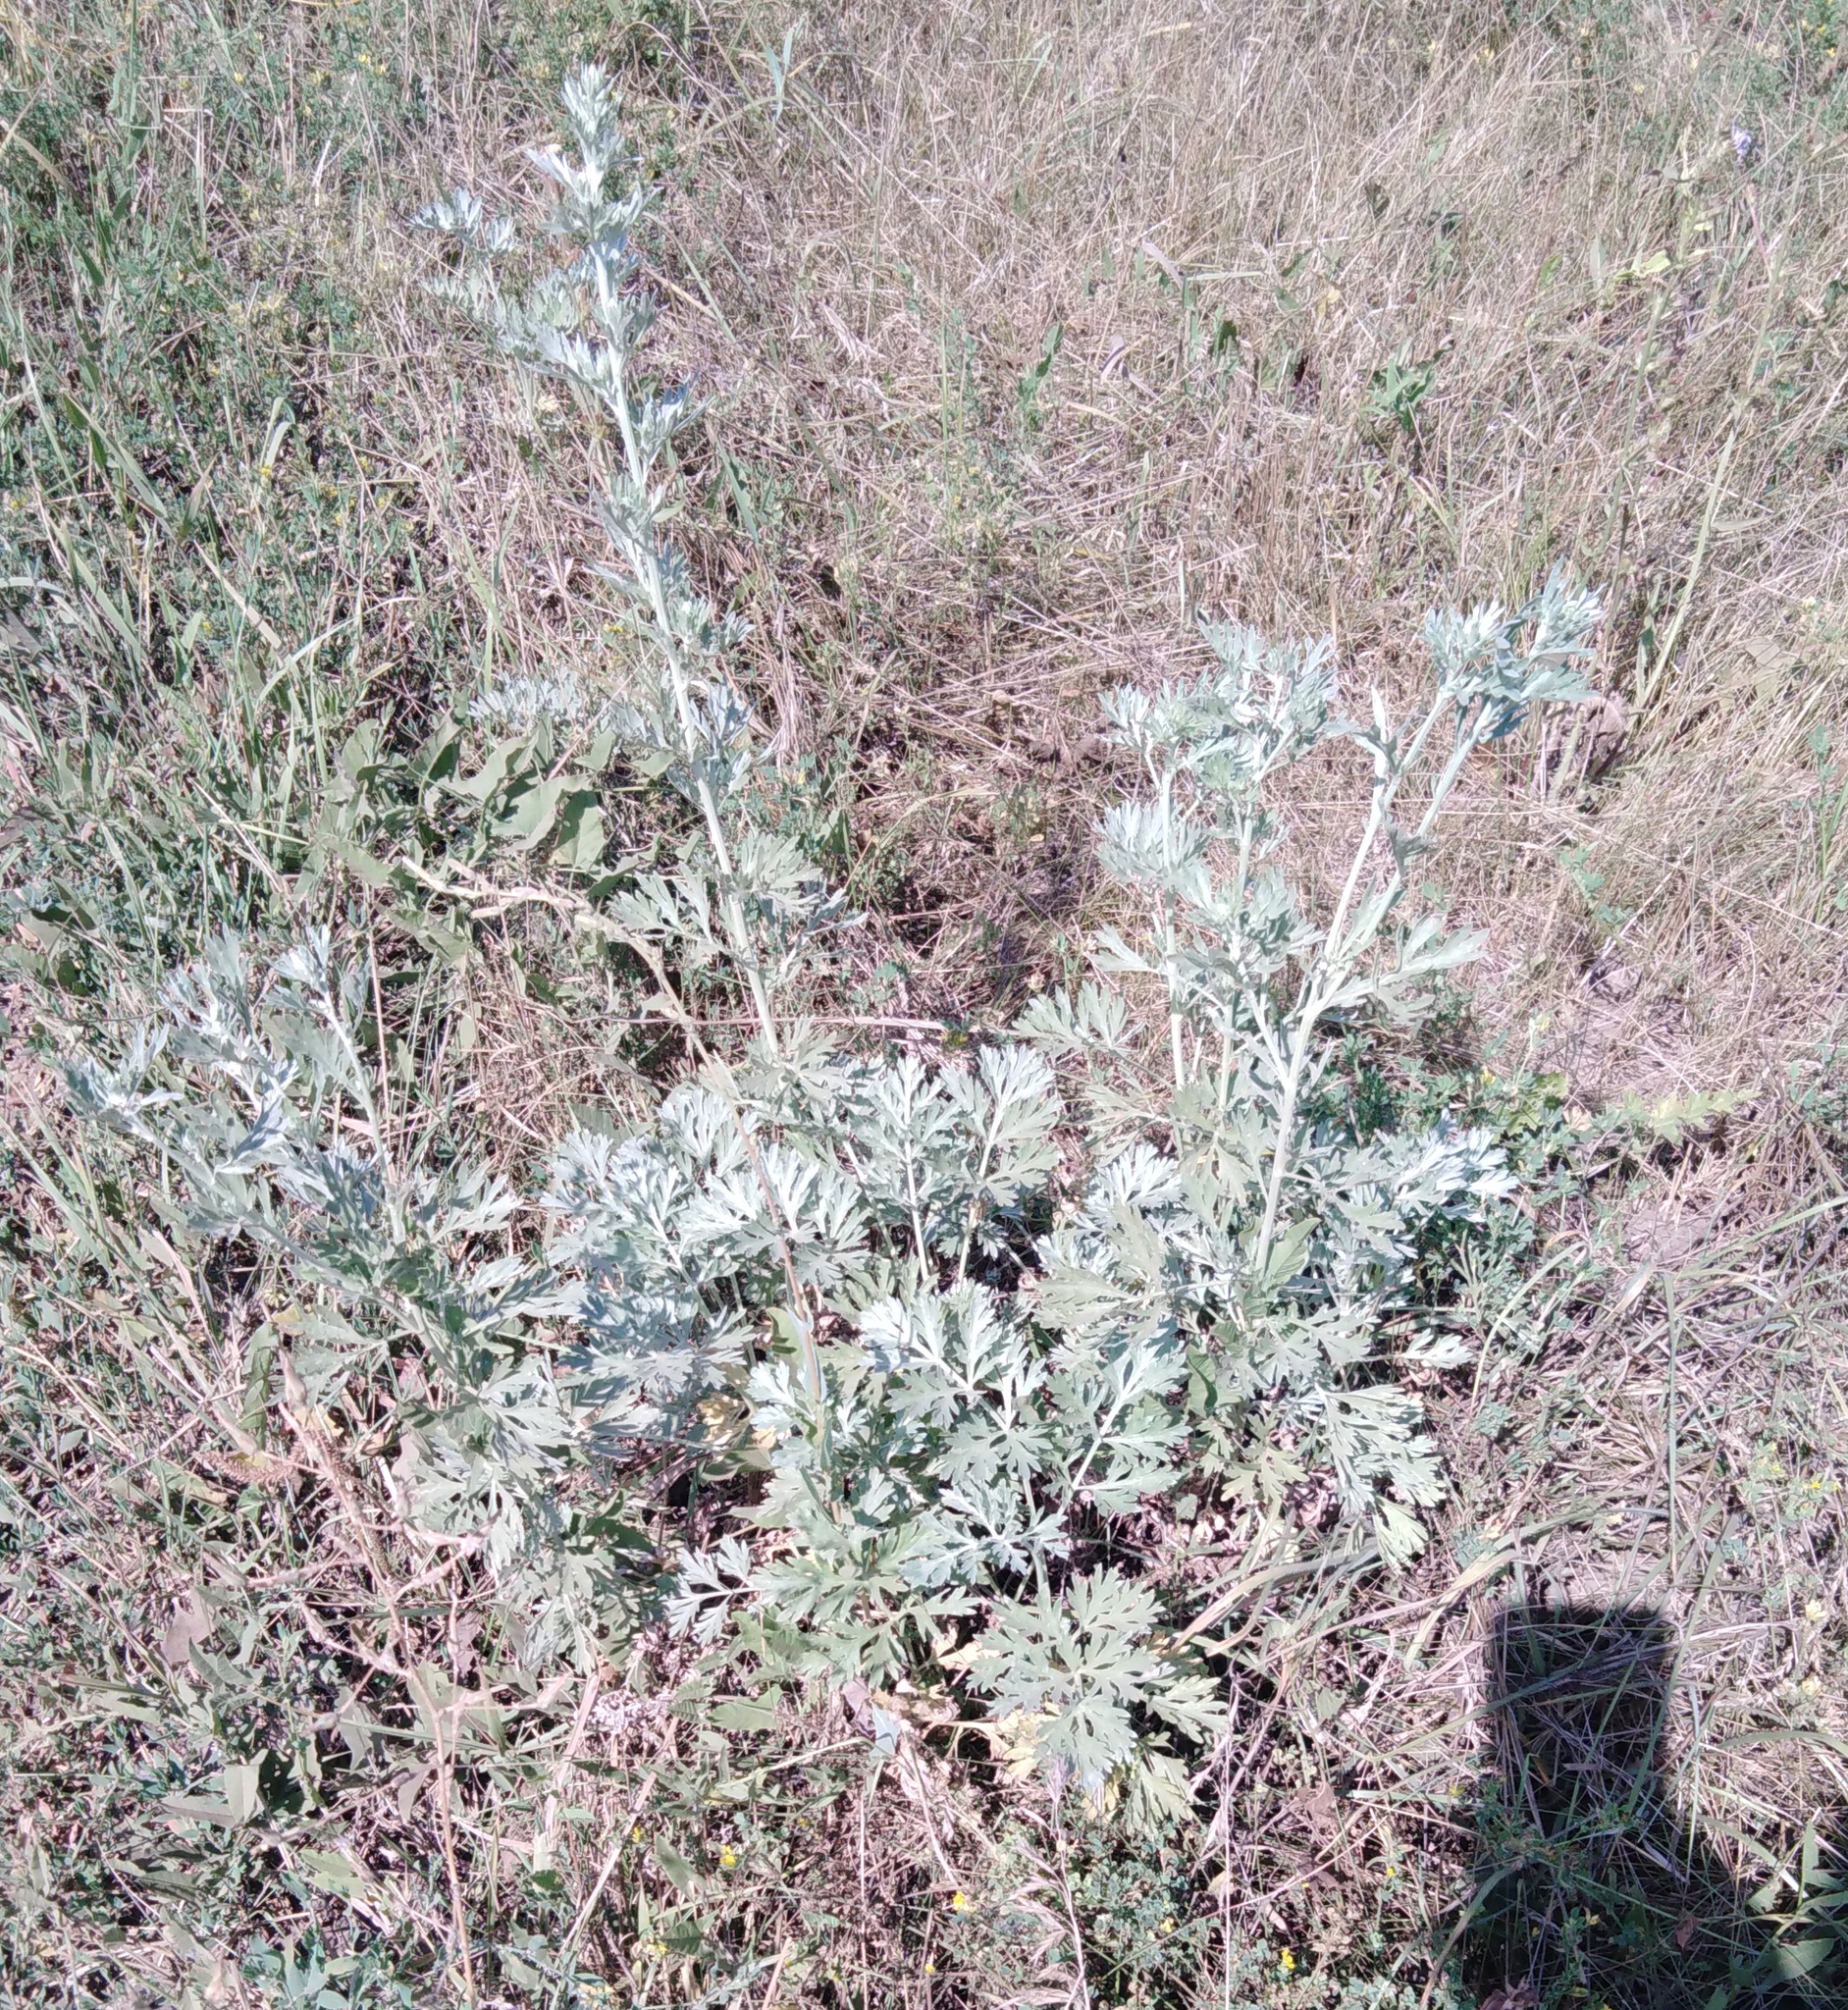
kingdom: Plantae
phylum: Tracheophyta
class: Magnoliopsida
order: Asterales
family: Asteraceae
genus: Artemisia
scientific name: Artemisia absinthium
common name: Wormwood
